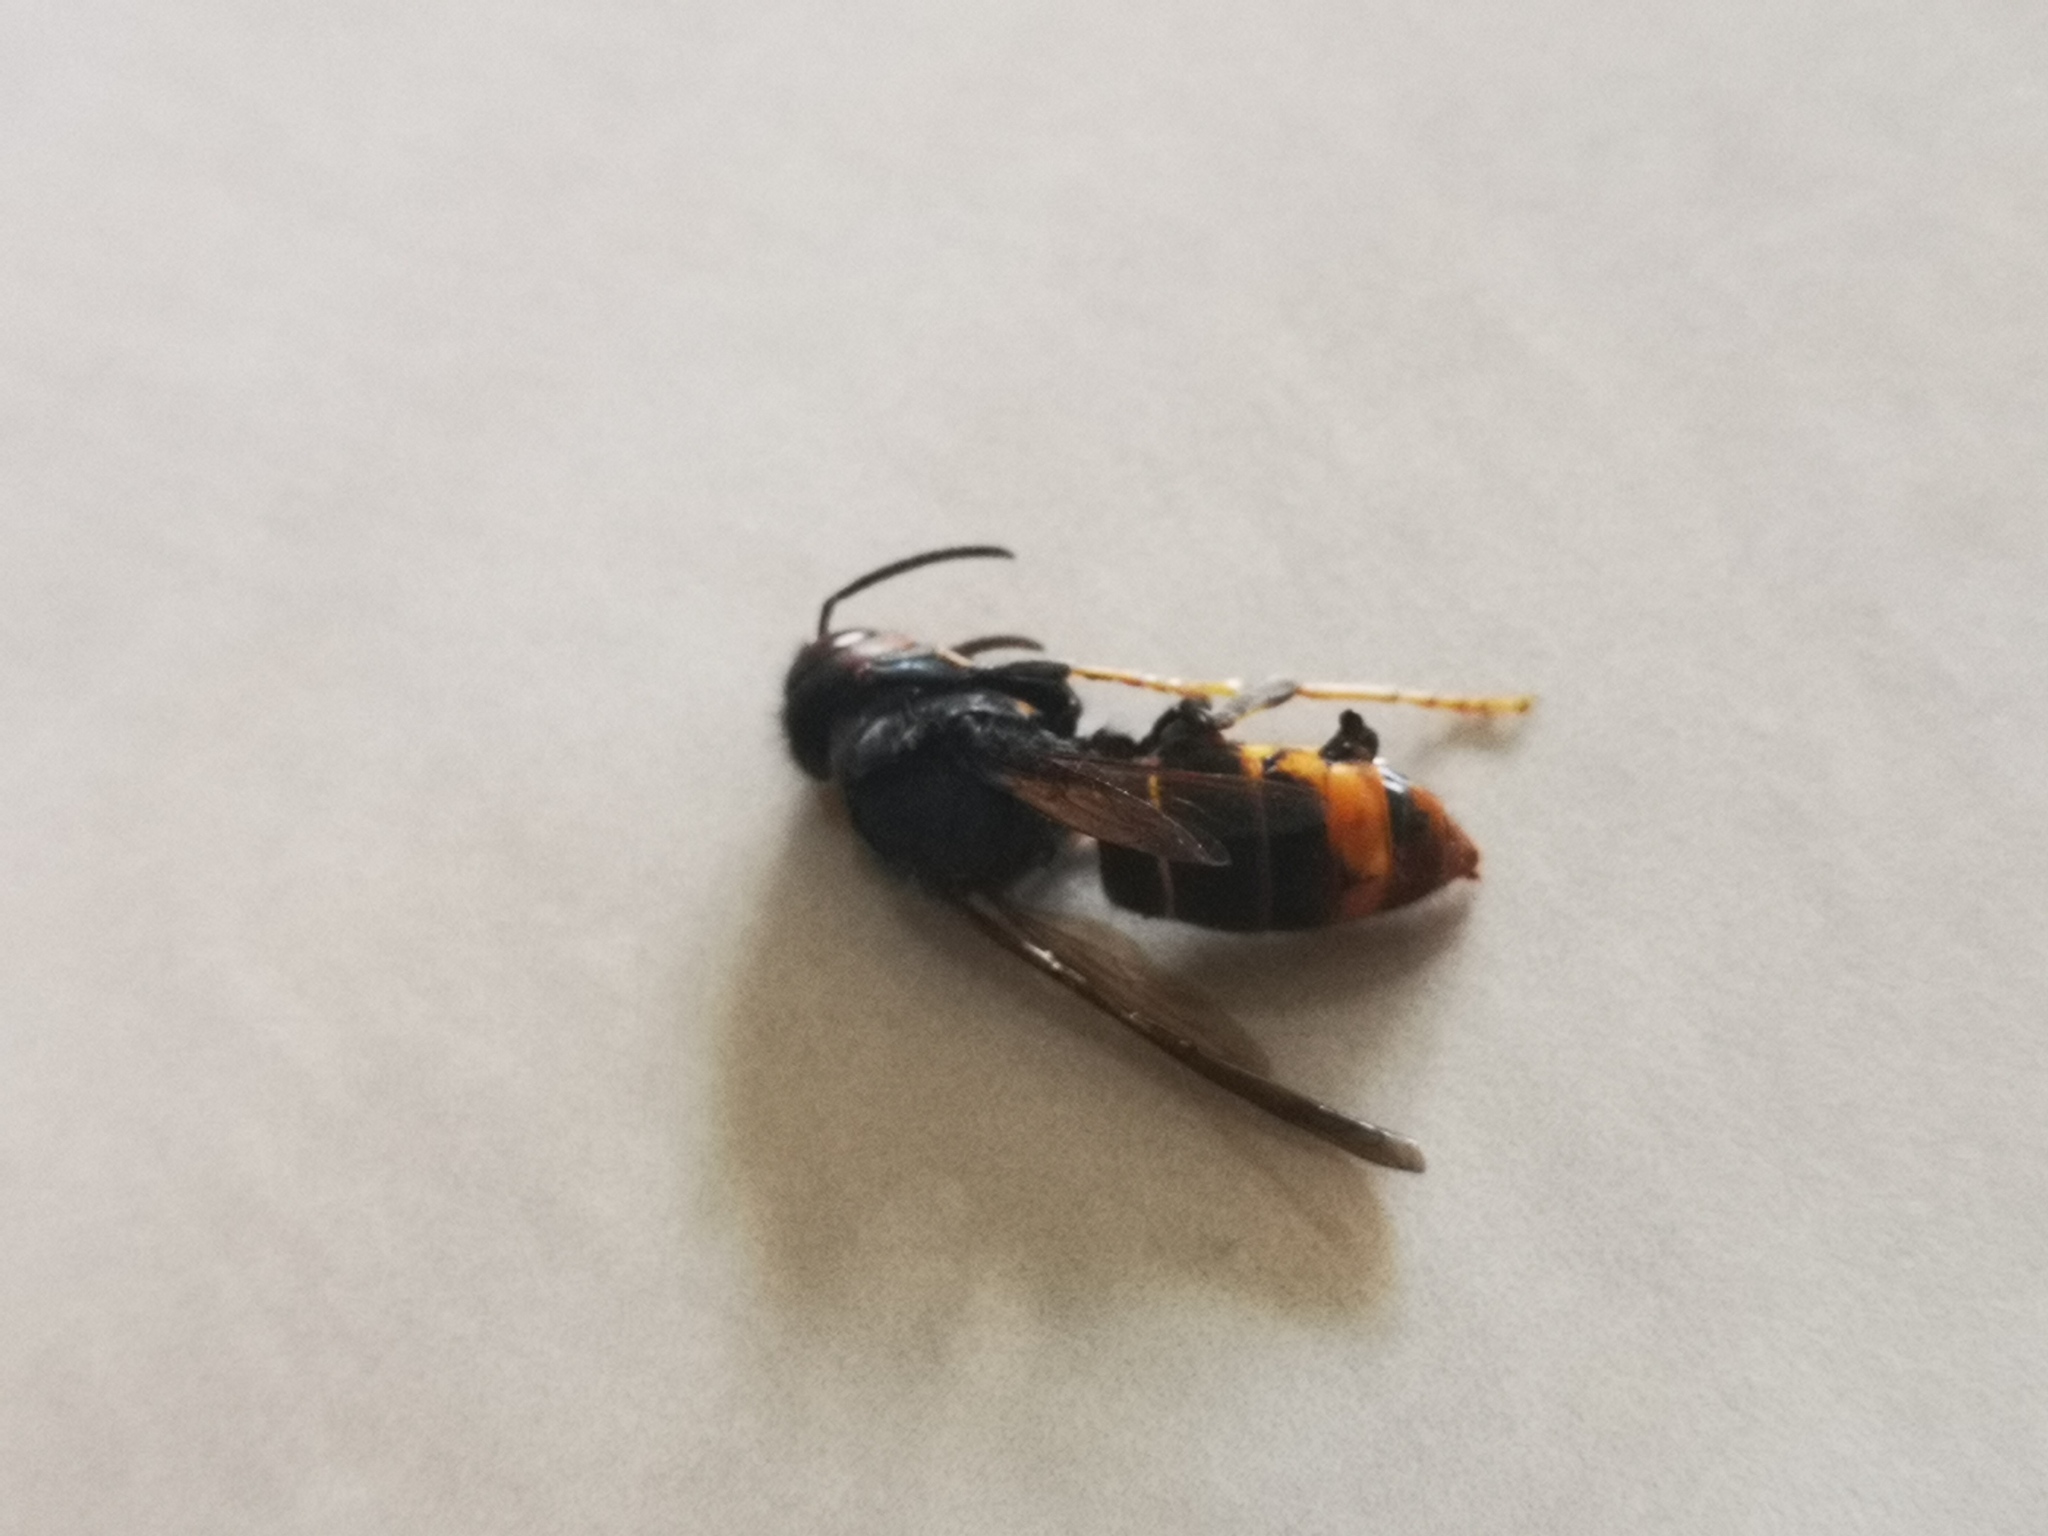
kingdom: Animalia
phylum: Arthropoda
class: Insecta
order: Hymenoptera
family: Vespidae
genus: Vespa
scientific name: Vespa velutina
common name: Asian hornet
